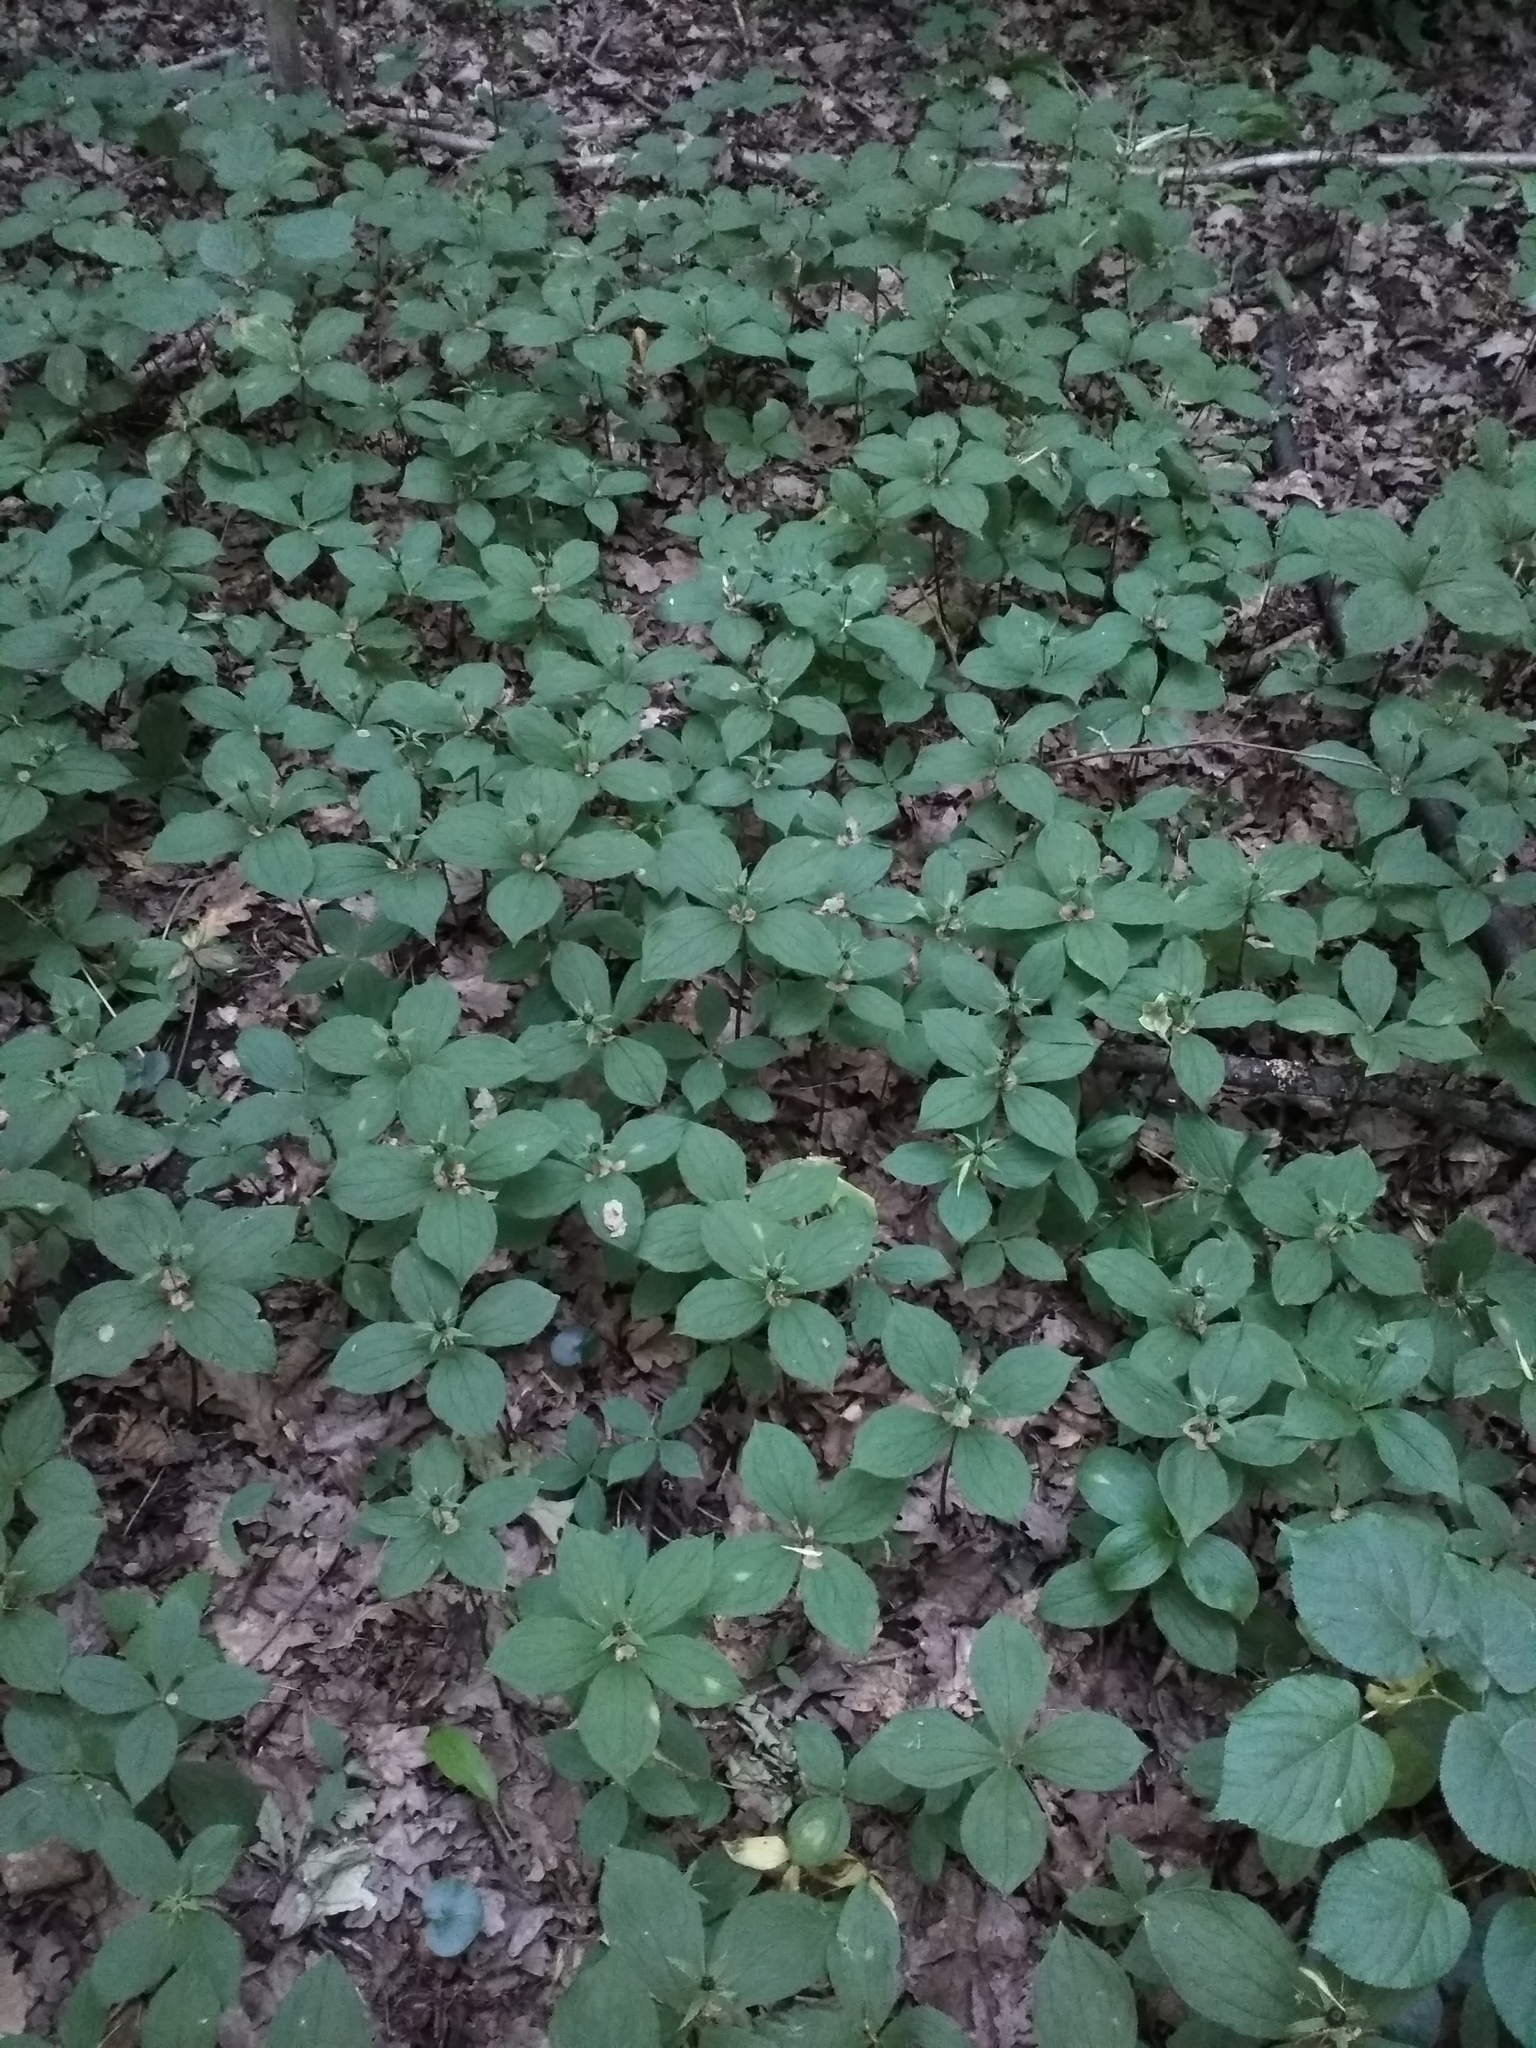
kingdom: Plantae
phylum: Tracheophyta
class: Liliopsida
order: Liliales
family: Melanthiaceae
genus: Paris
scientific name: Paris quadrifolia
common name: Herb-paris
